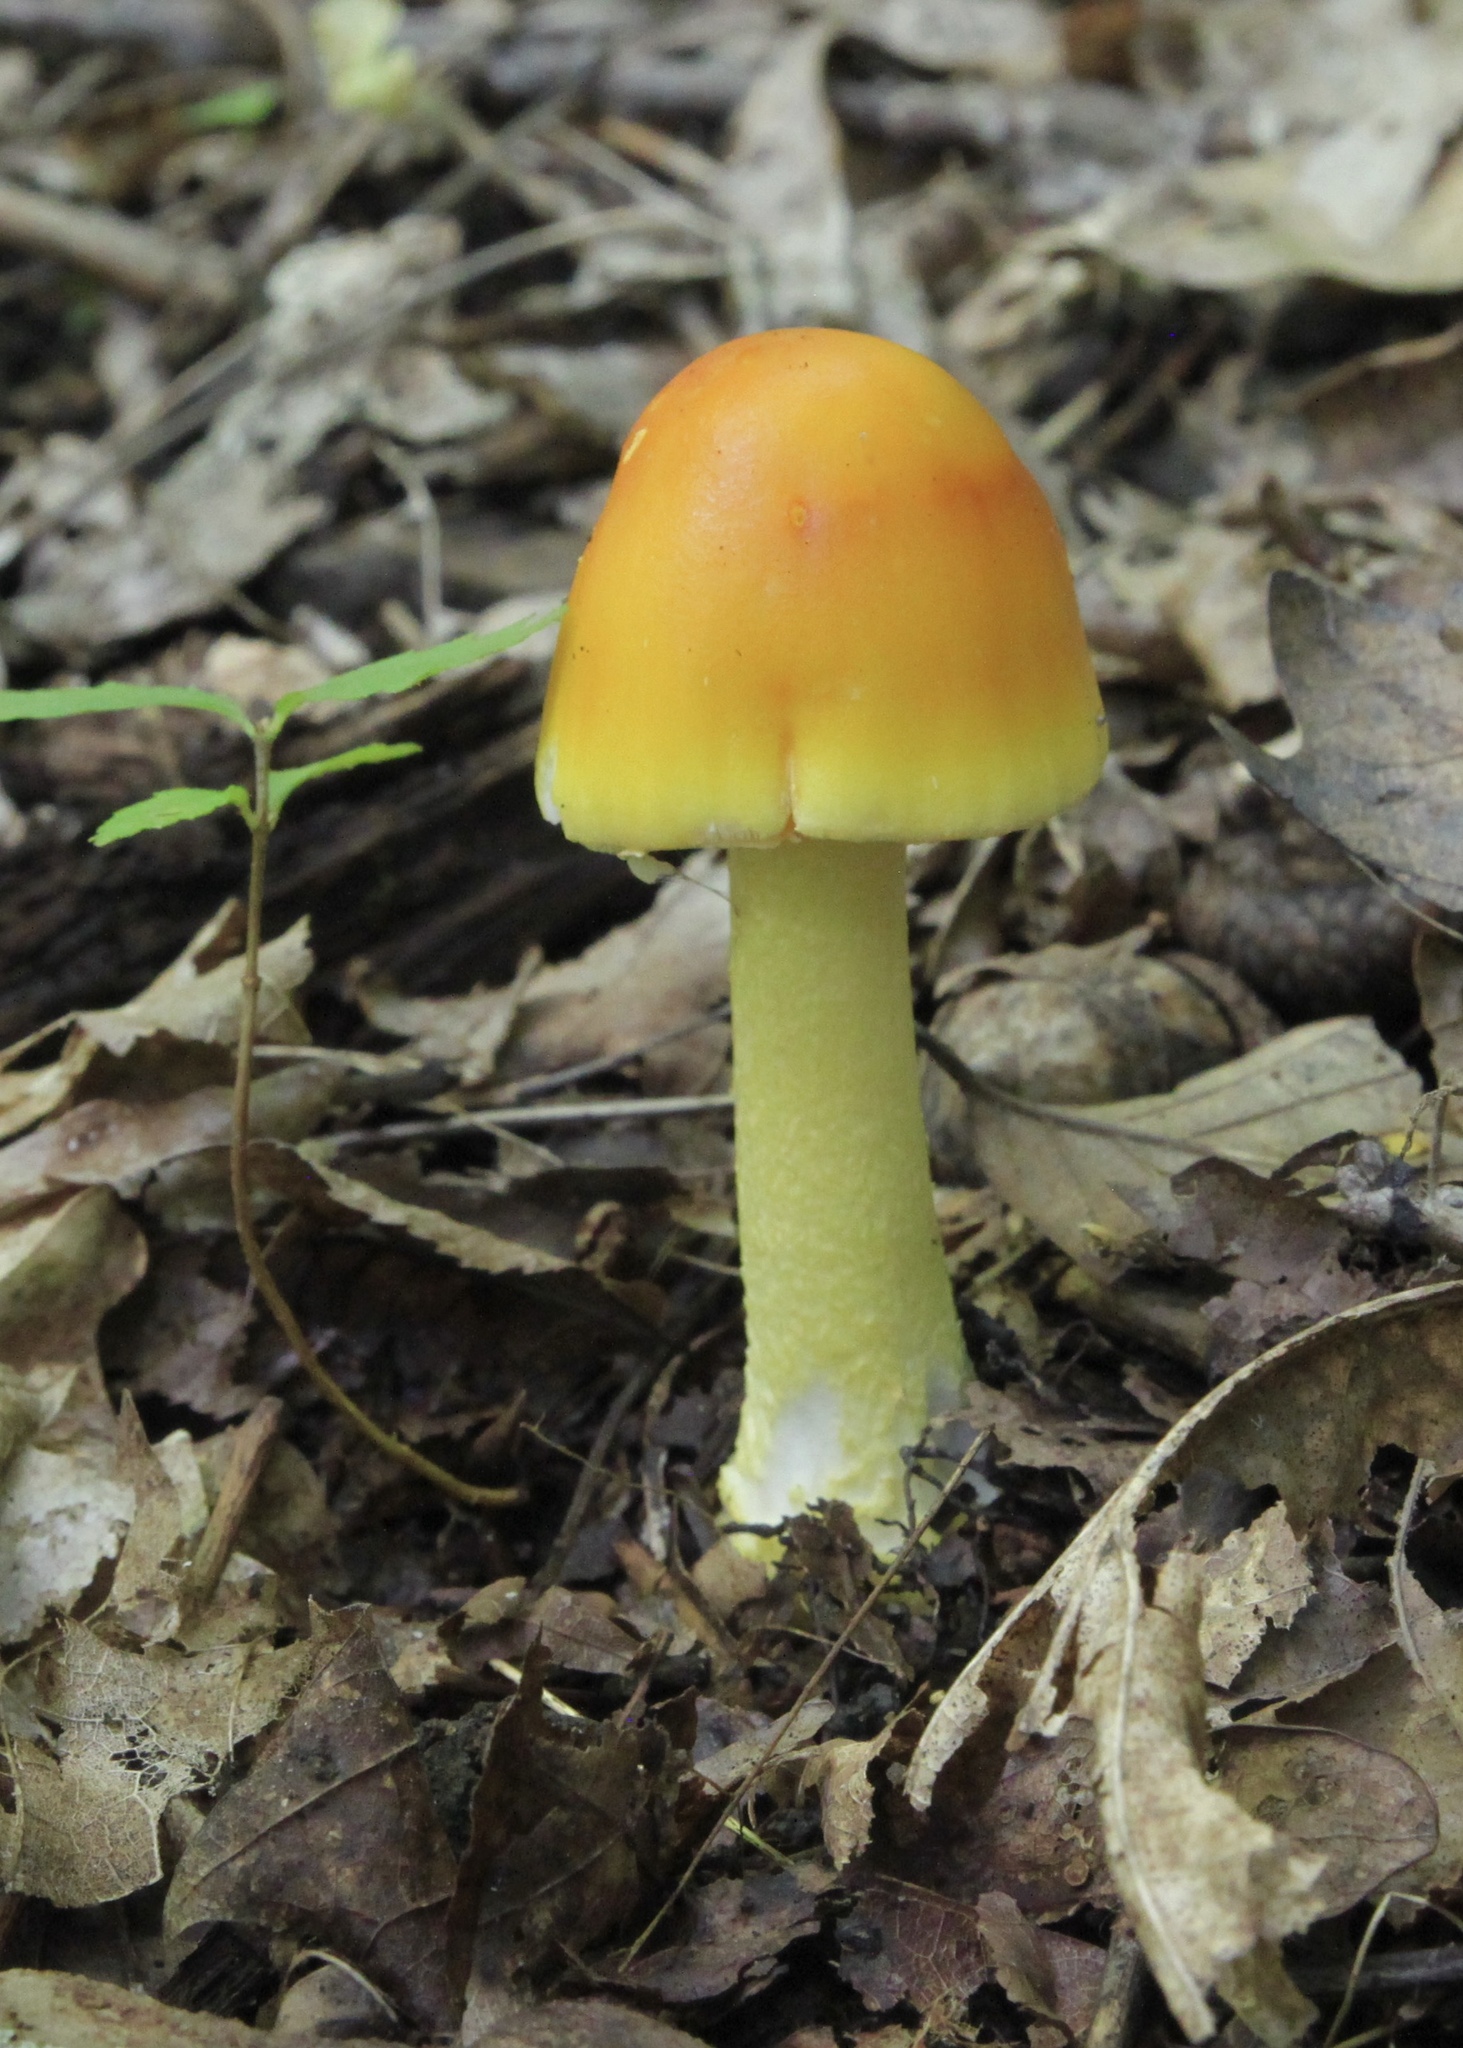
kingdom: Fungi
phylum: Basidiomycota
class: Agaricomycetes
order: Agaricales
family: Amanitaceae
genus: Amanita
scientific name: Amanita flavoconia
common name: Yellow patches
